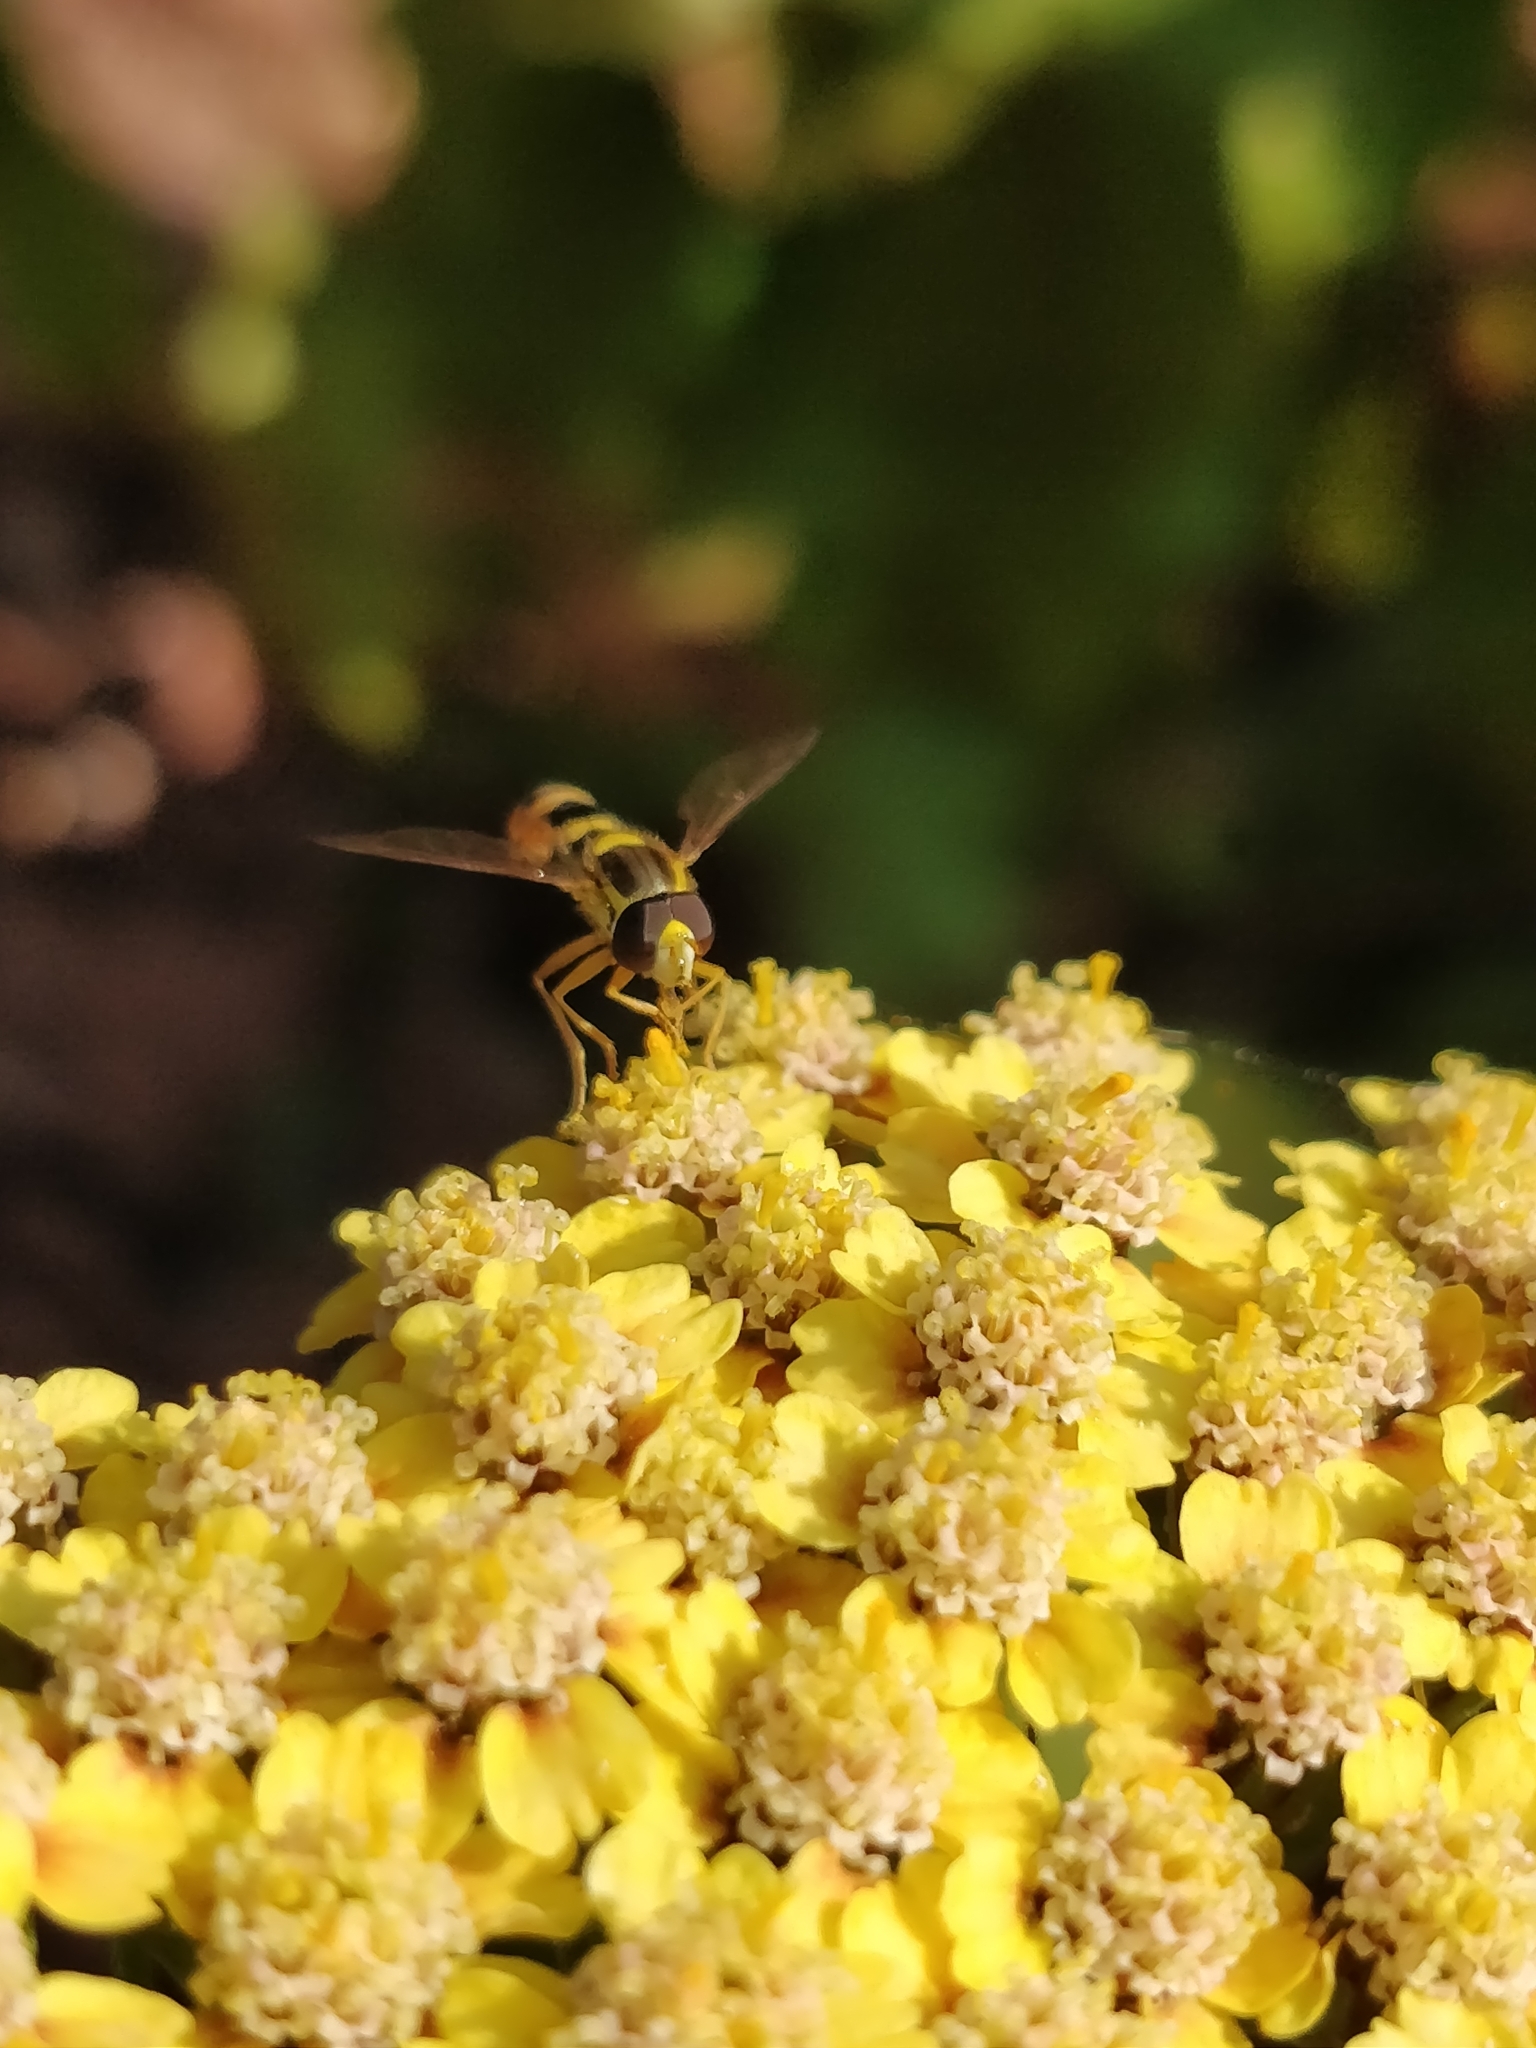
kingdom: Animalia
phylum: Arthropoda
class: Insecta
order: Diptera
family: Syrphidae
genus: Sphaerophoria
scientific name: Sphaerophoria
